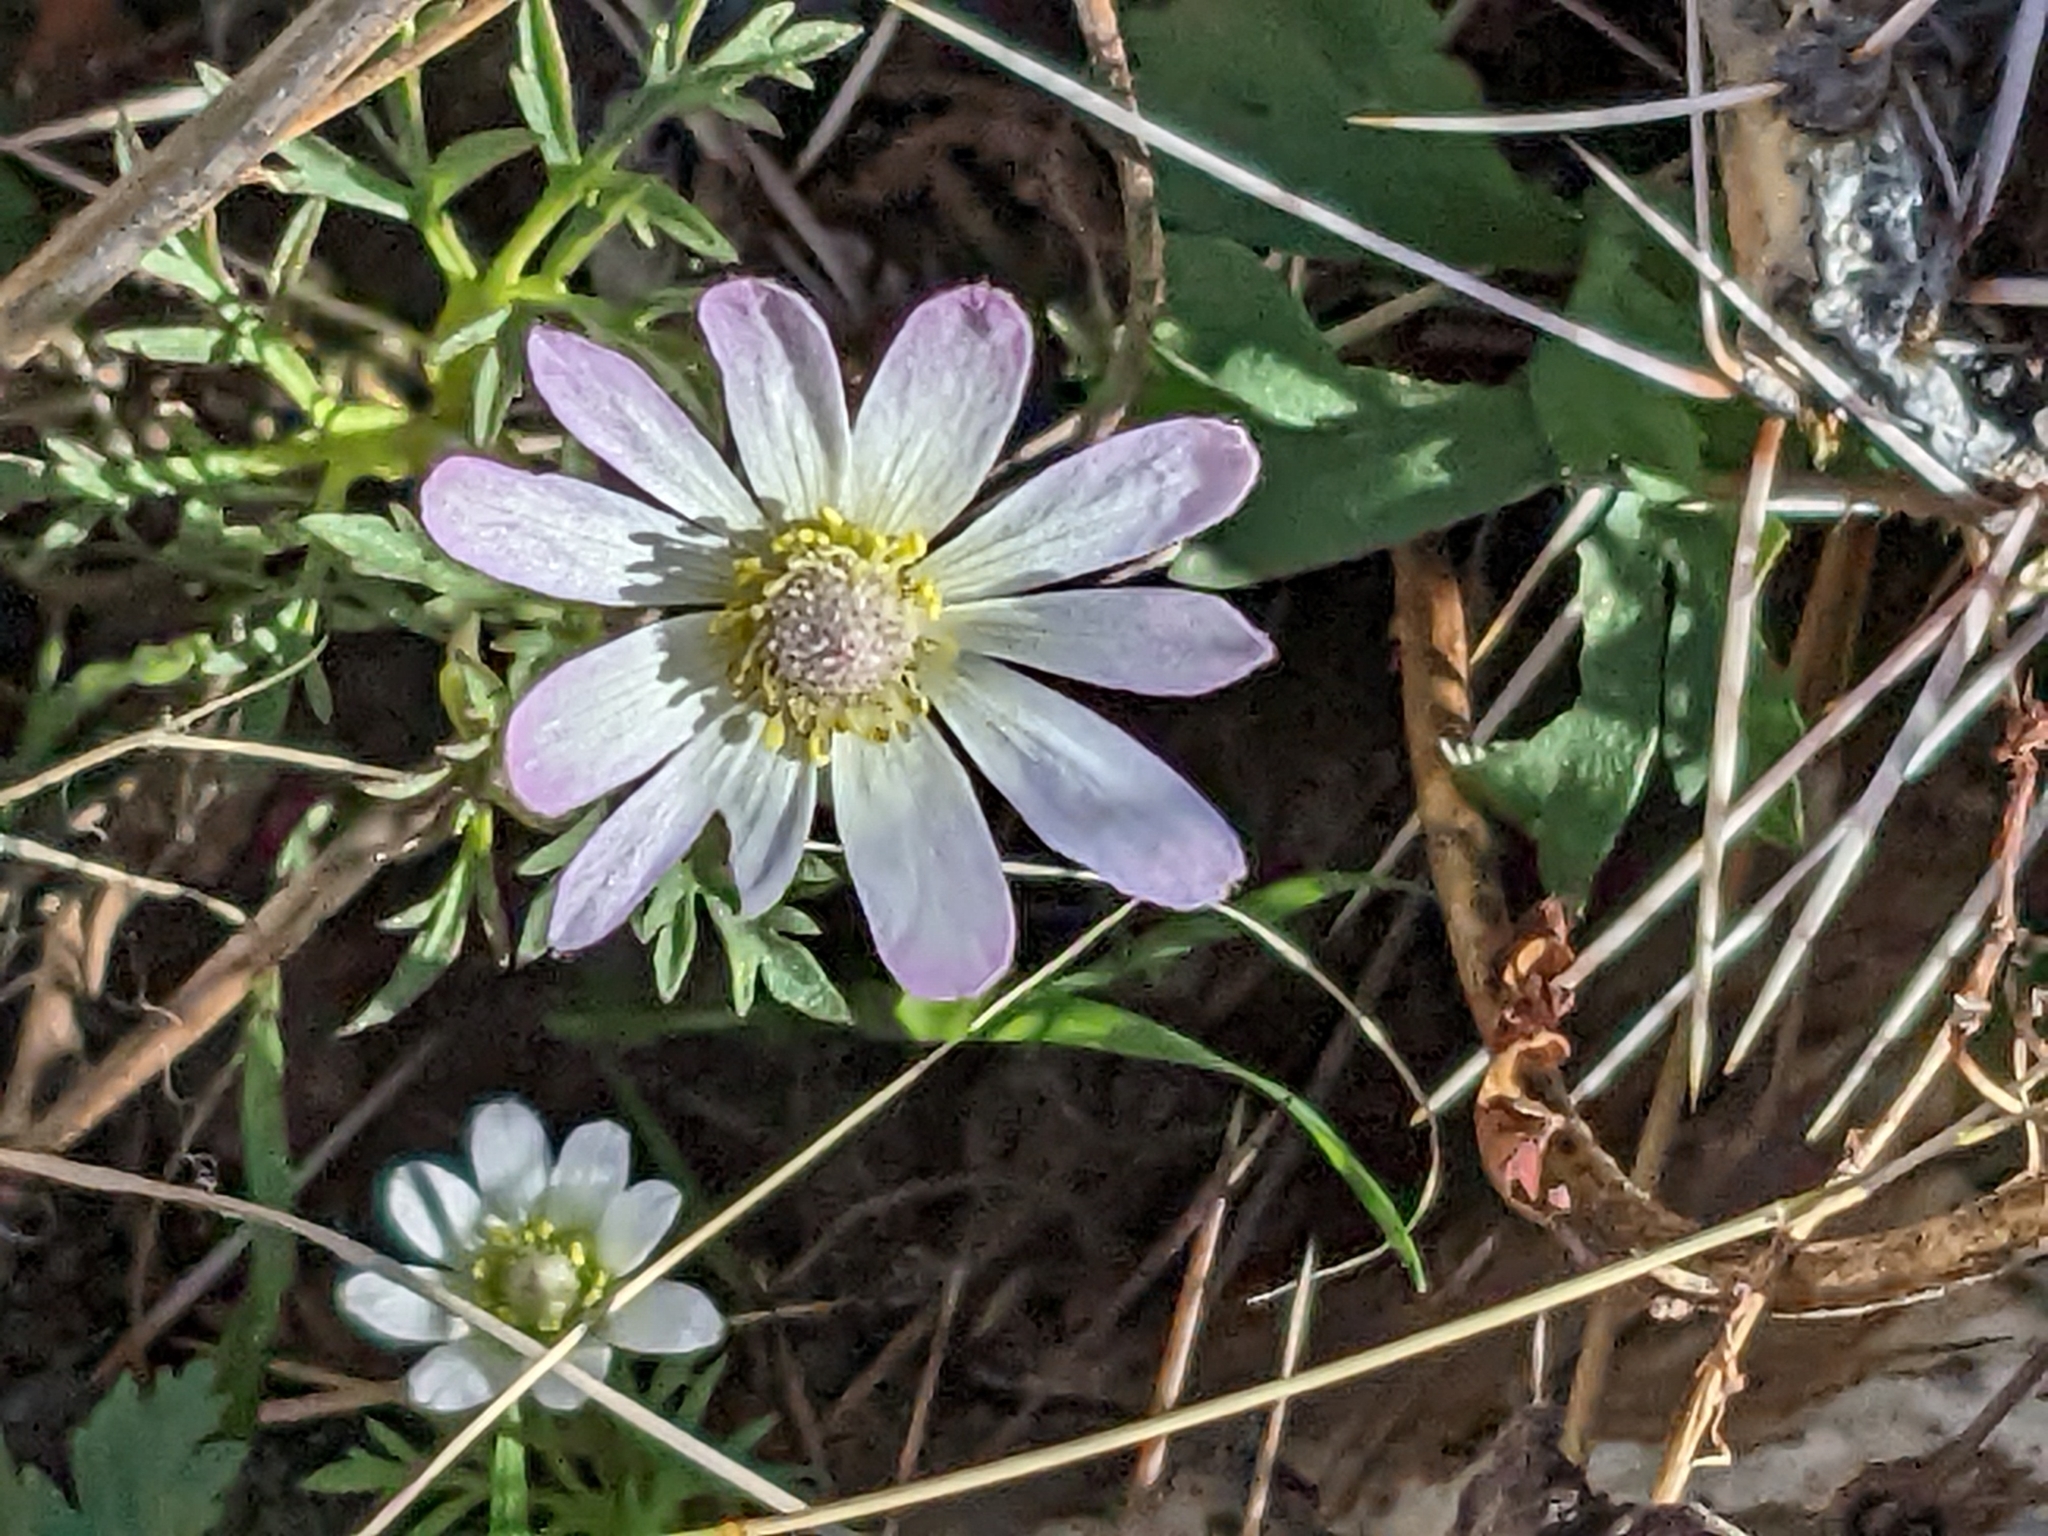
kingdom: Plantae
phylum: Tracheophyta
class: Magnoliopsida
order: Ranunculales
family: Ranunculaceae
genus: Anemone
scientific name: Anemone tuberosa
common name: Desert anemone
